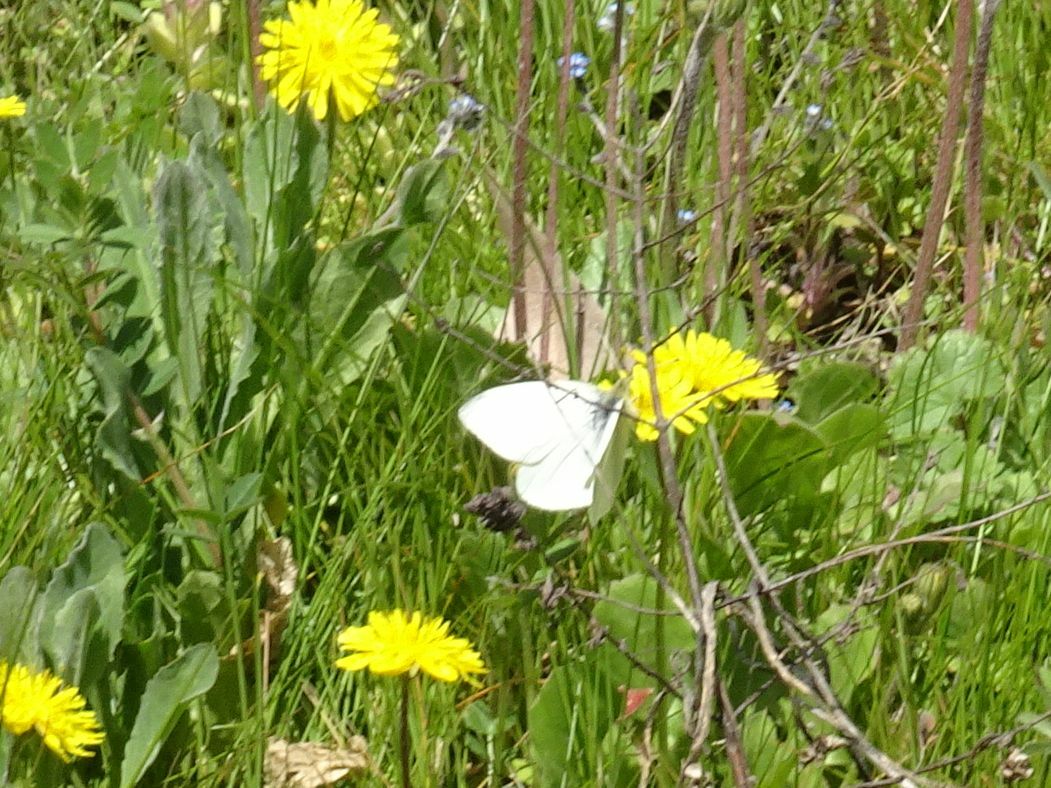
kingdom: Animalia
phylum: Arthropoda
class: Insecta
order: Lepidoptera
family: Pieridae
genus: Pieris
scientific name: Pieris rapae
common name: Small white
